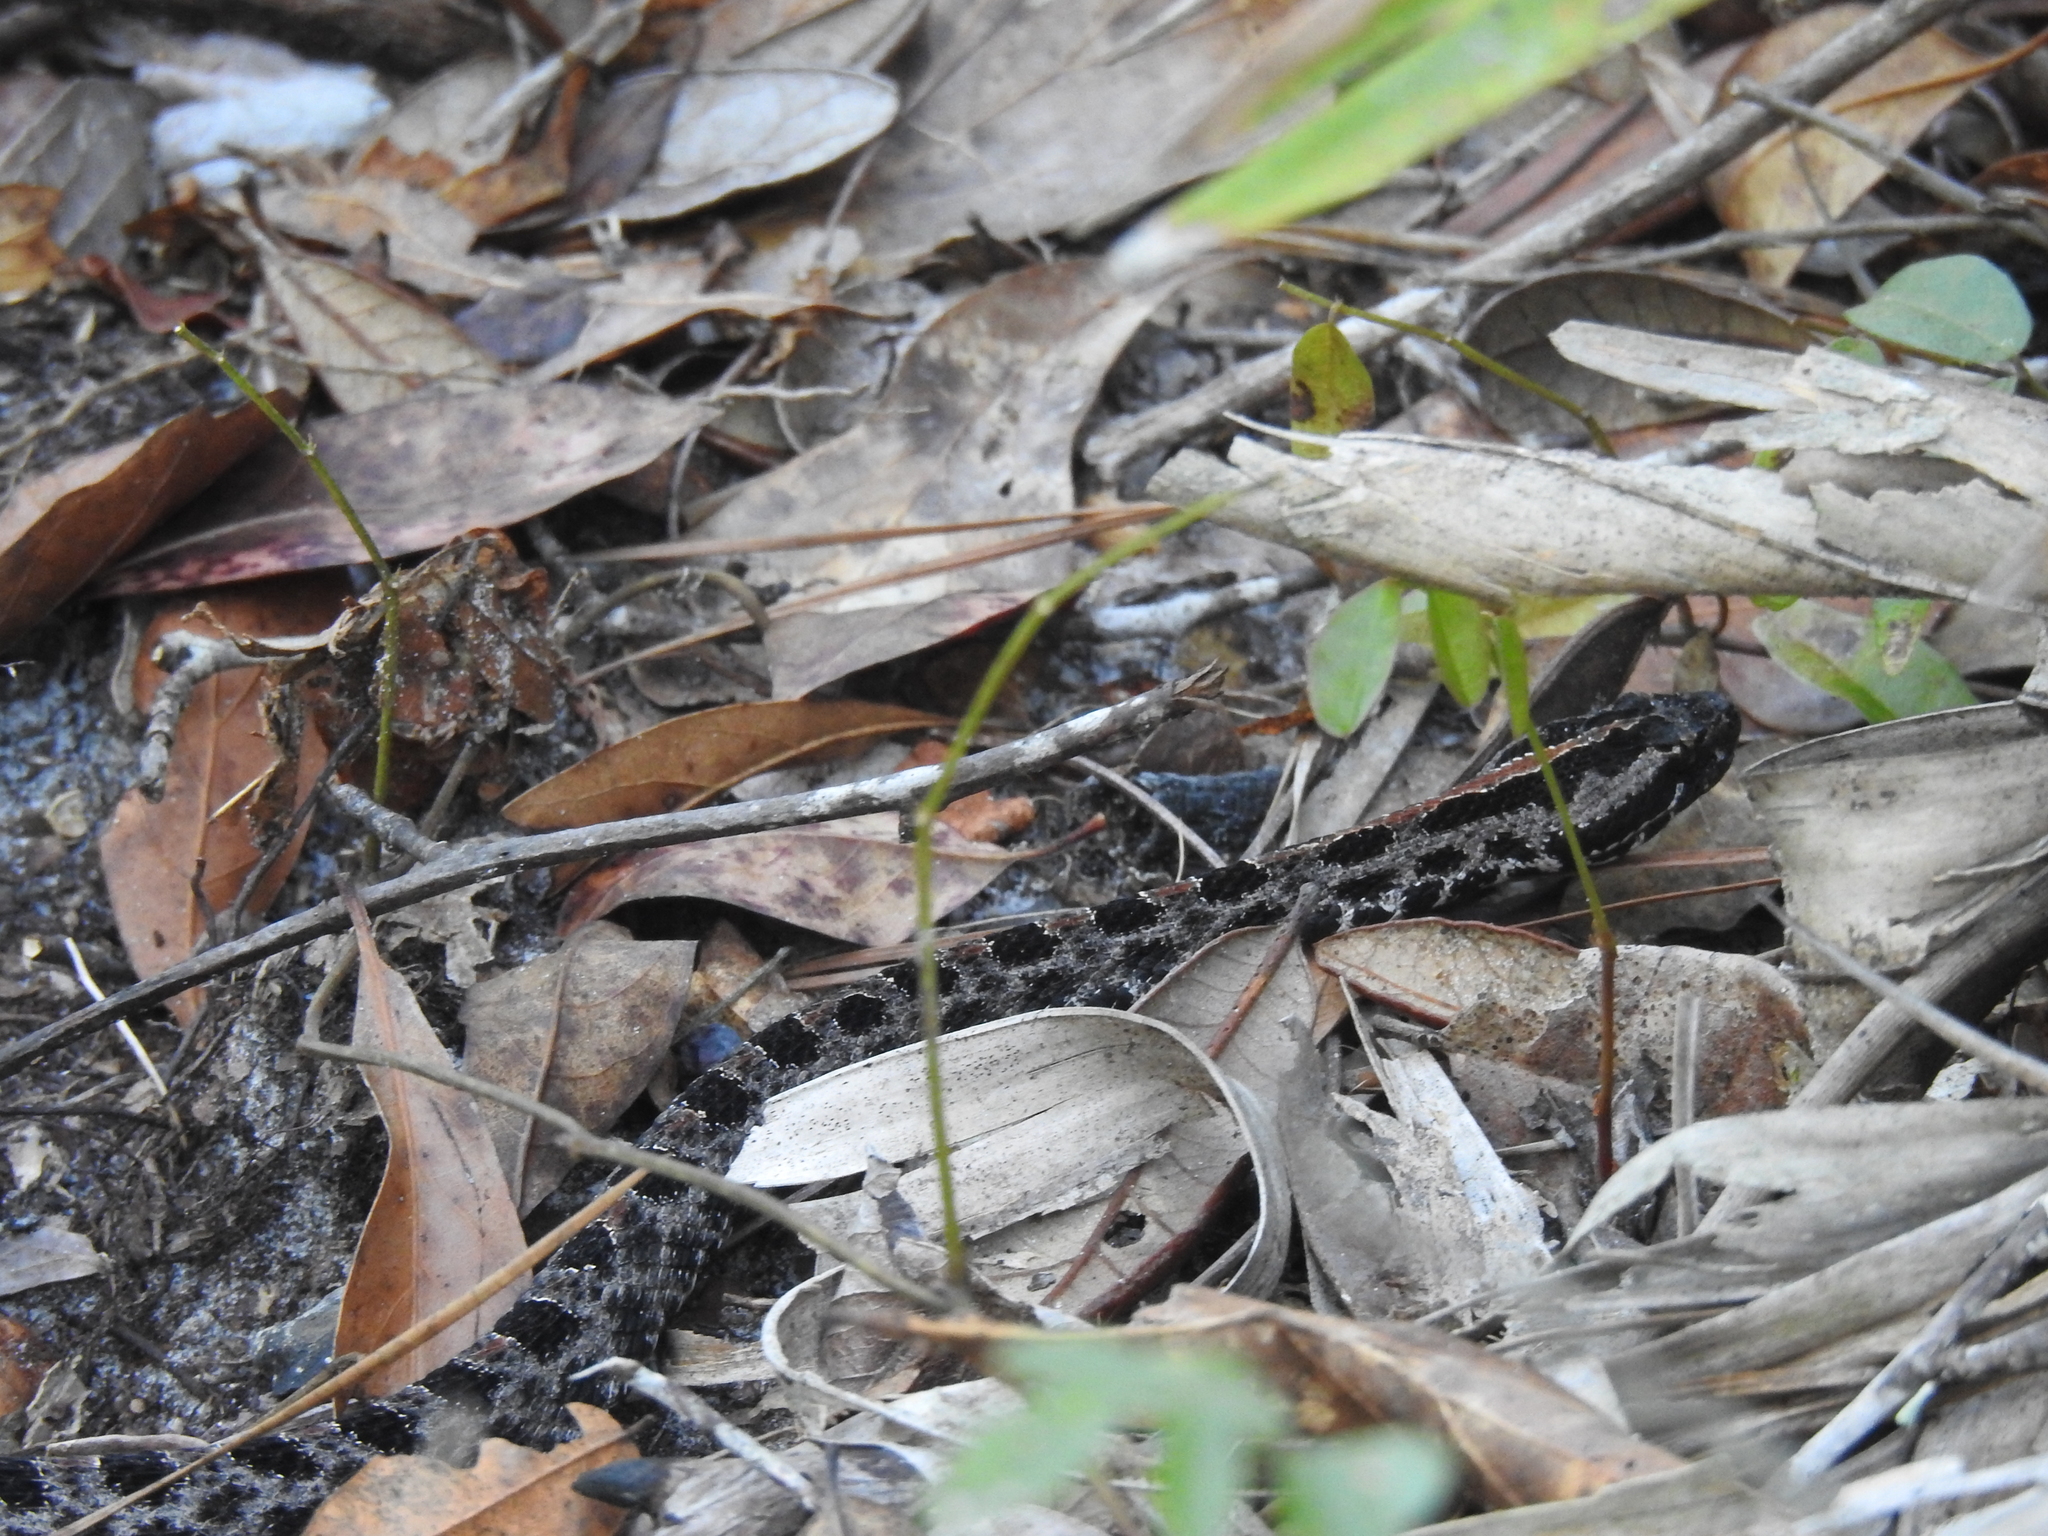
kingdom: Animalia
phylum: Chordata
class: Squamata
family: Viperidae
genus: Sistrurus
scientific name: Sistrurus miliarius
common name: Pygmy rattlesnake
